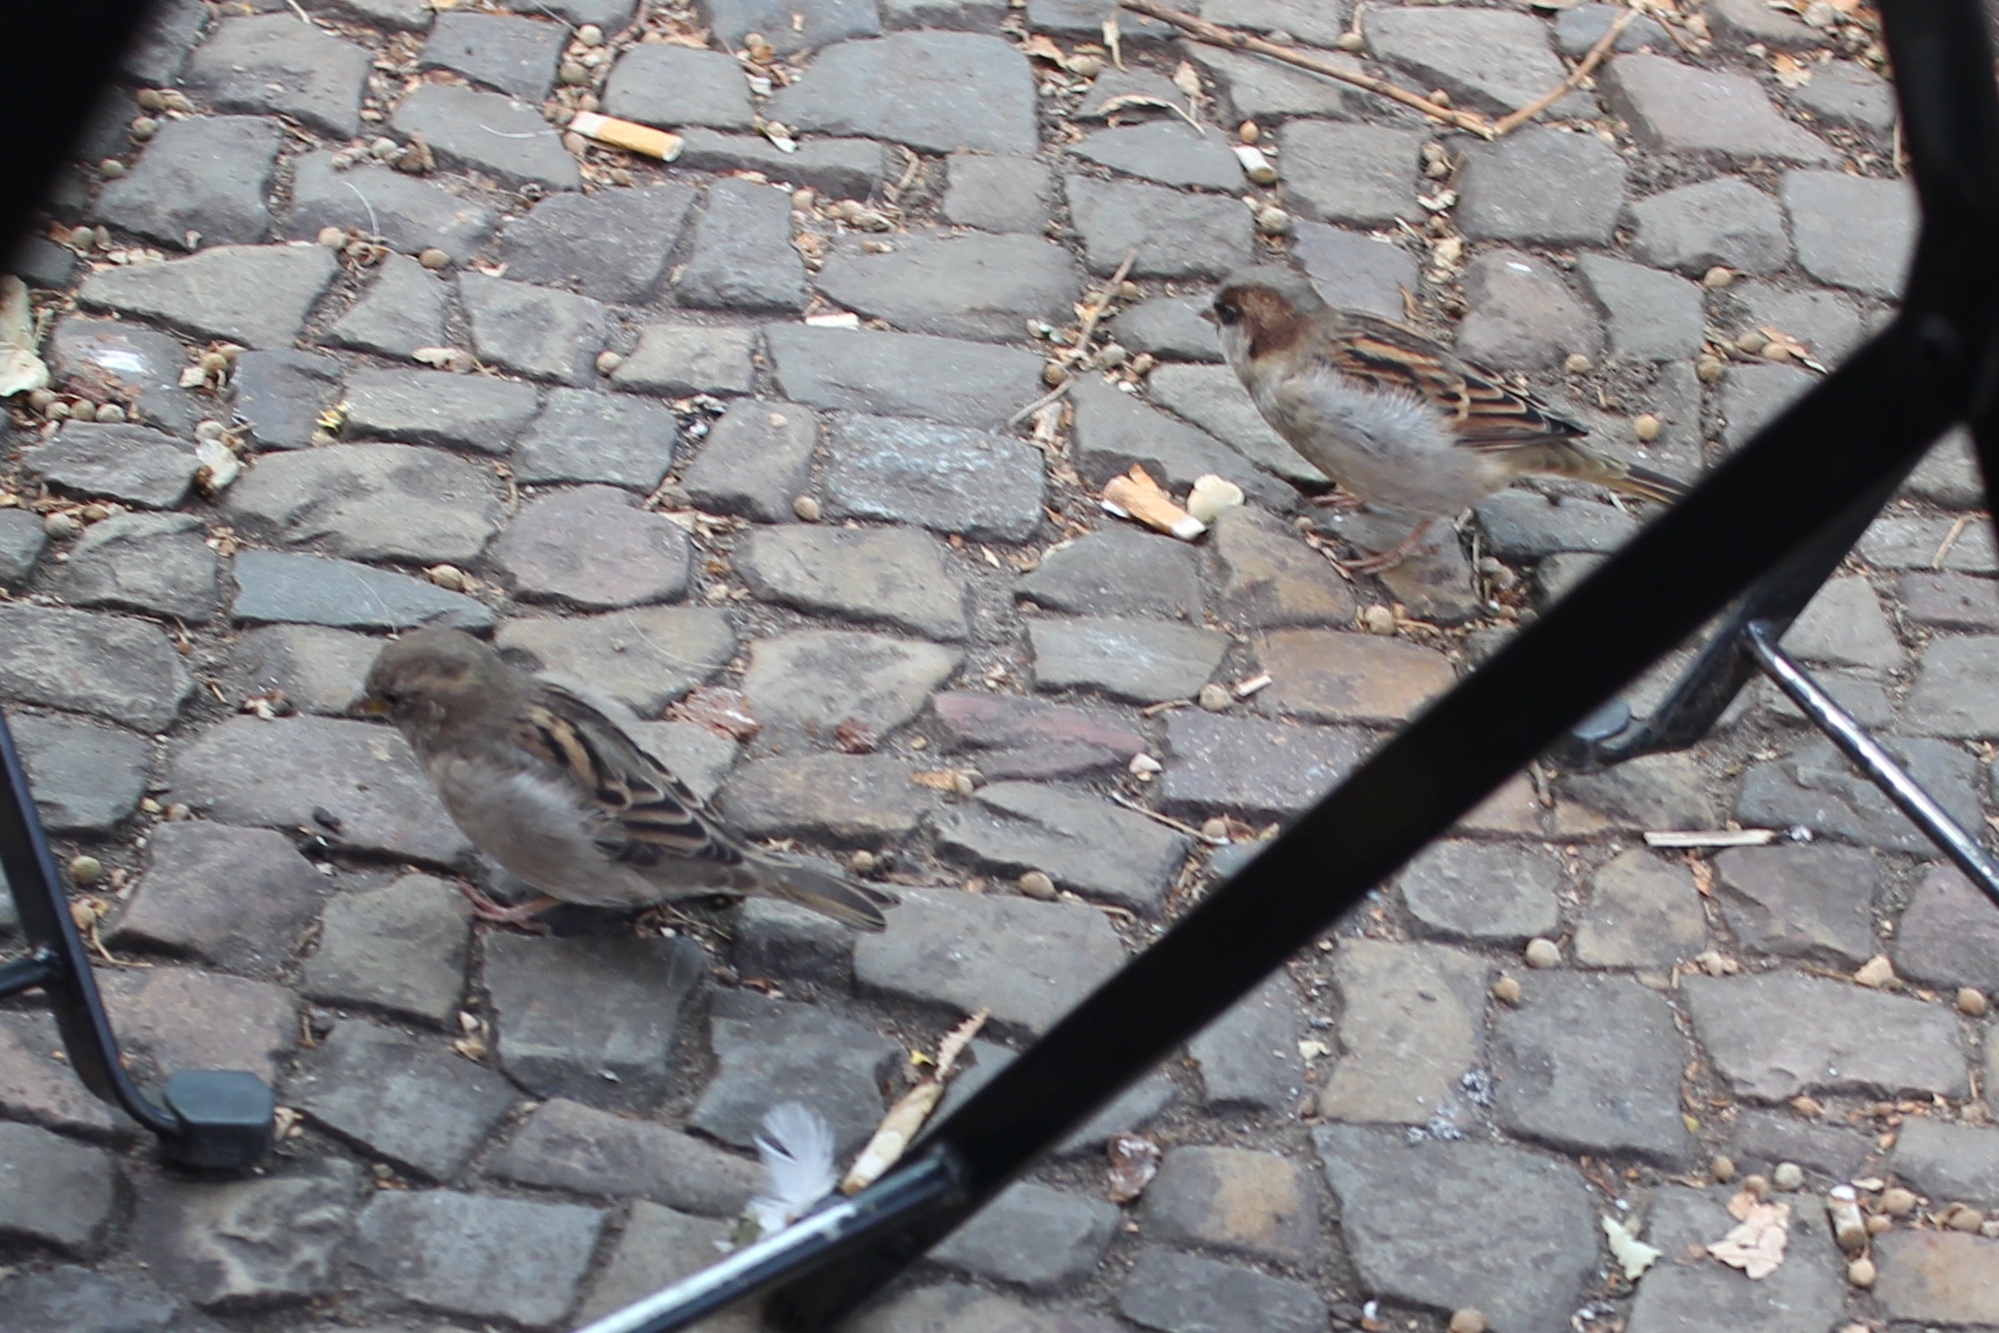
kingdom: Animalia
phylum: Chordata
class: Aves
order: Passeriformes
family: Passeridae
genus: Passer
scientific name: Passer domesticus
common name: House sparrow
